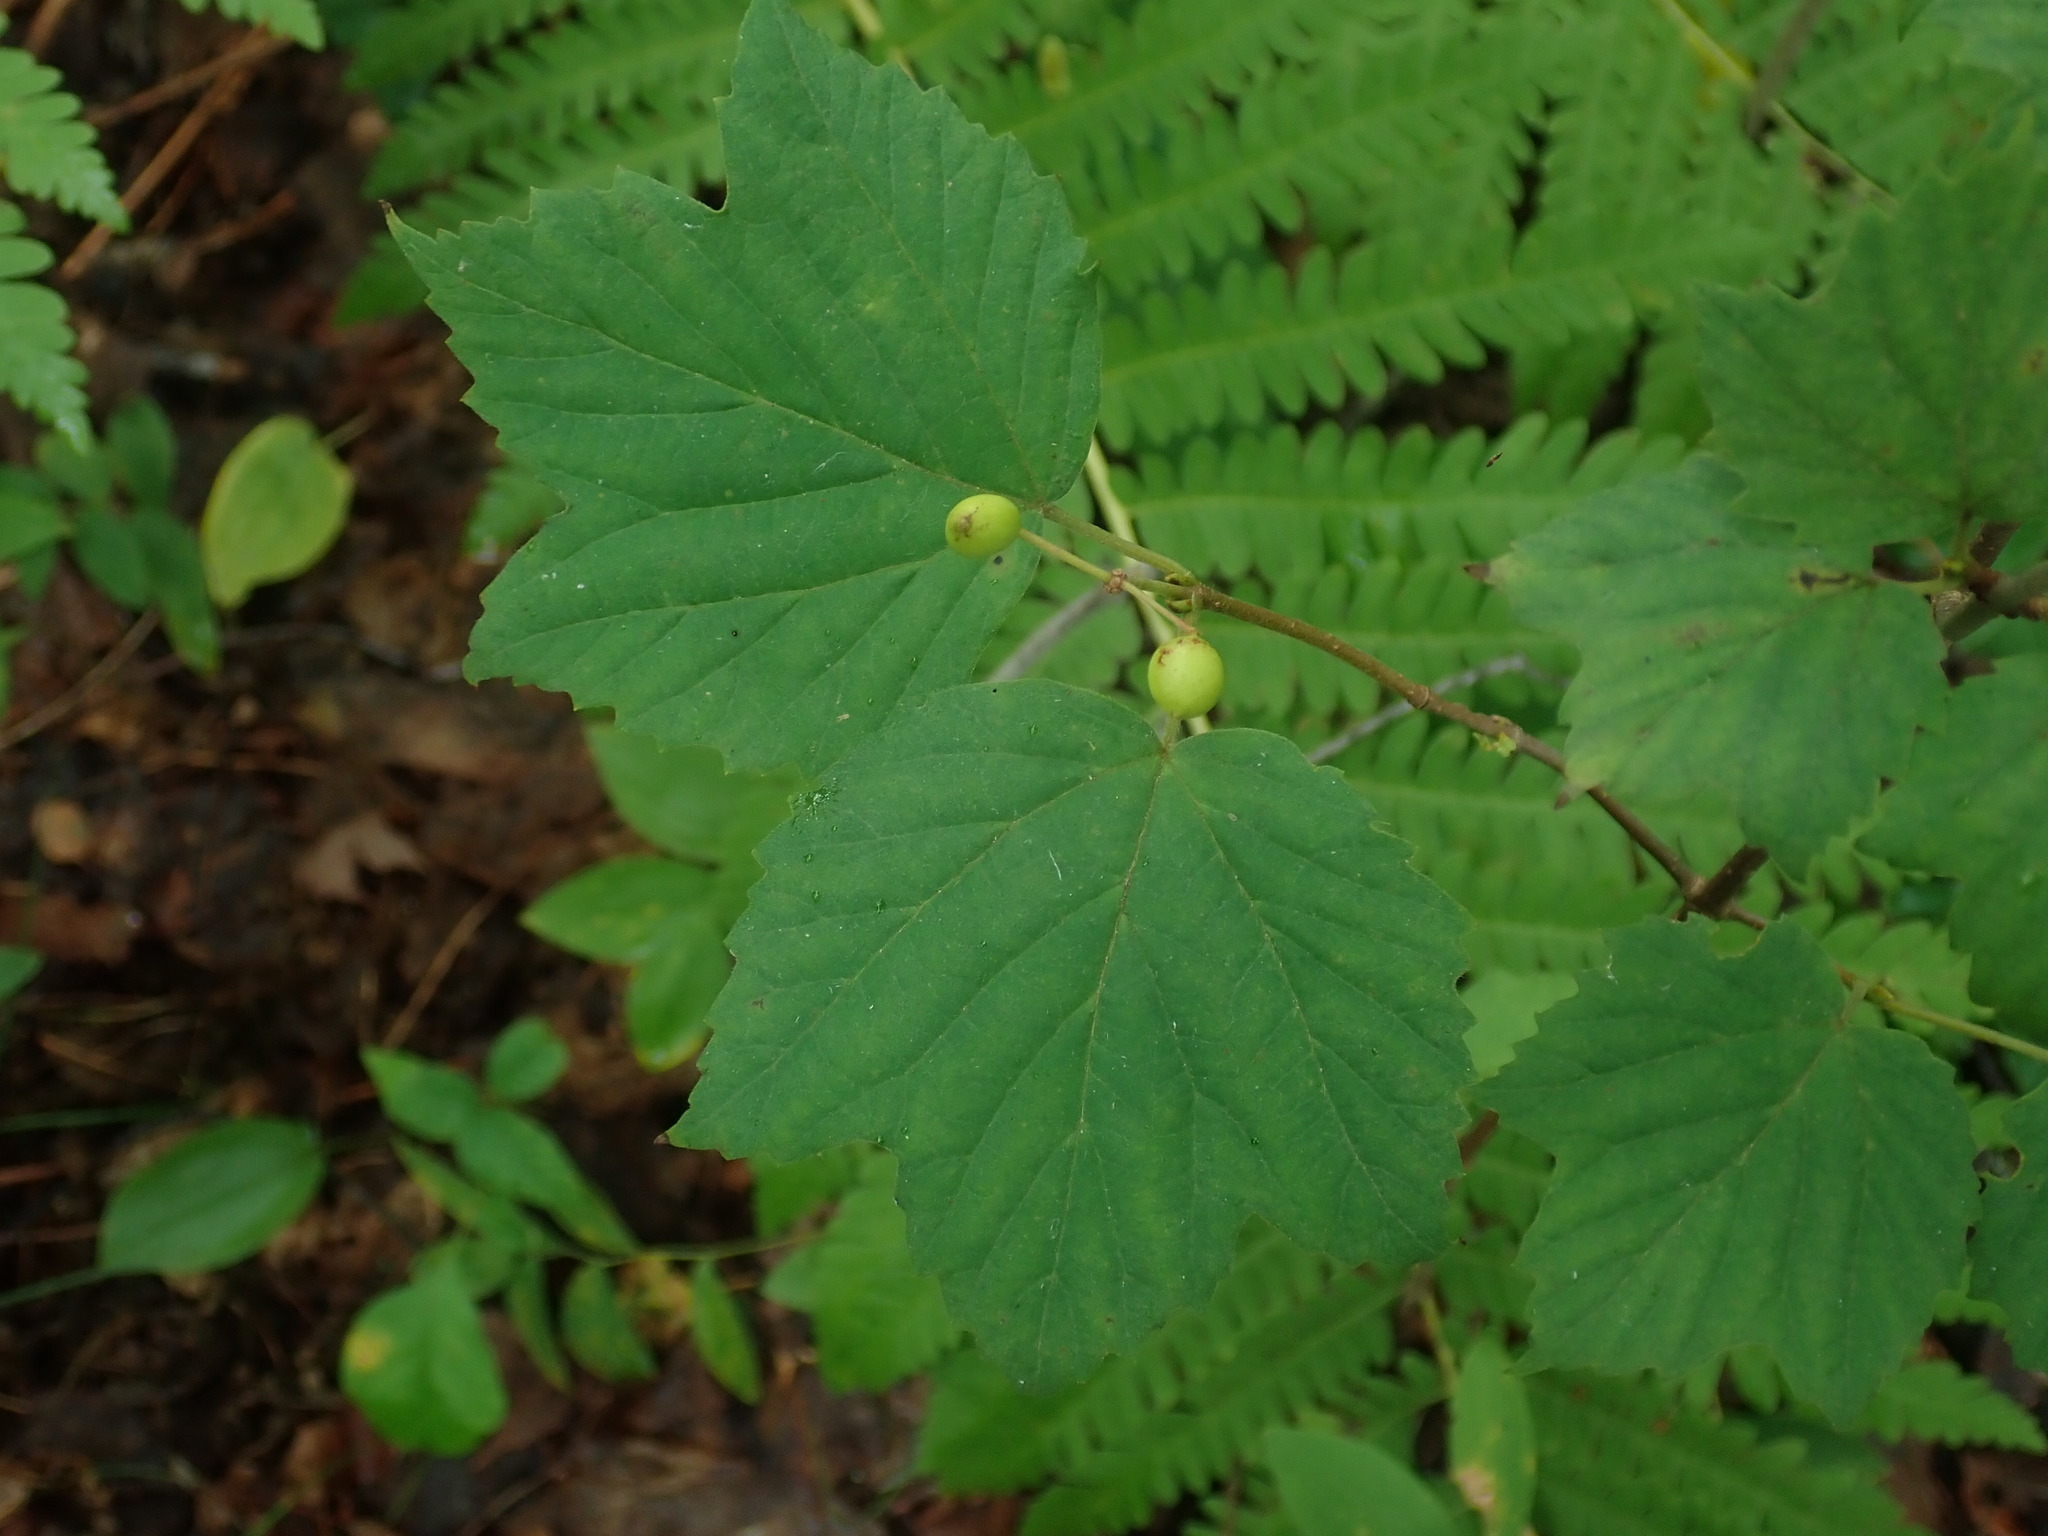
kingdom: Plantae
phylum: Tracheophyta
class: Magnoliopsida
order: Dipsacales
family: Viburnaceae
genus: Viburnum
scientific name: Viburnum acerifolium
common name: Dockmackie
